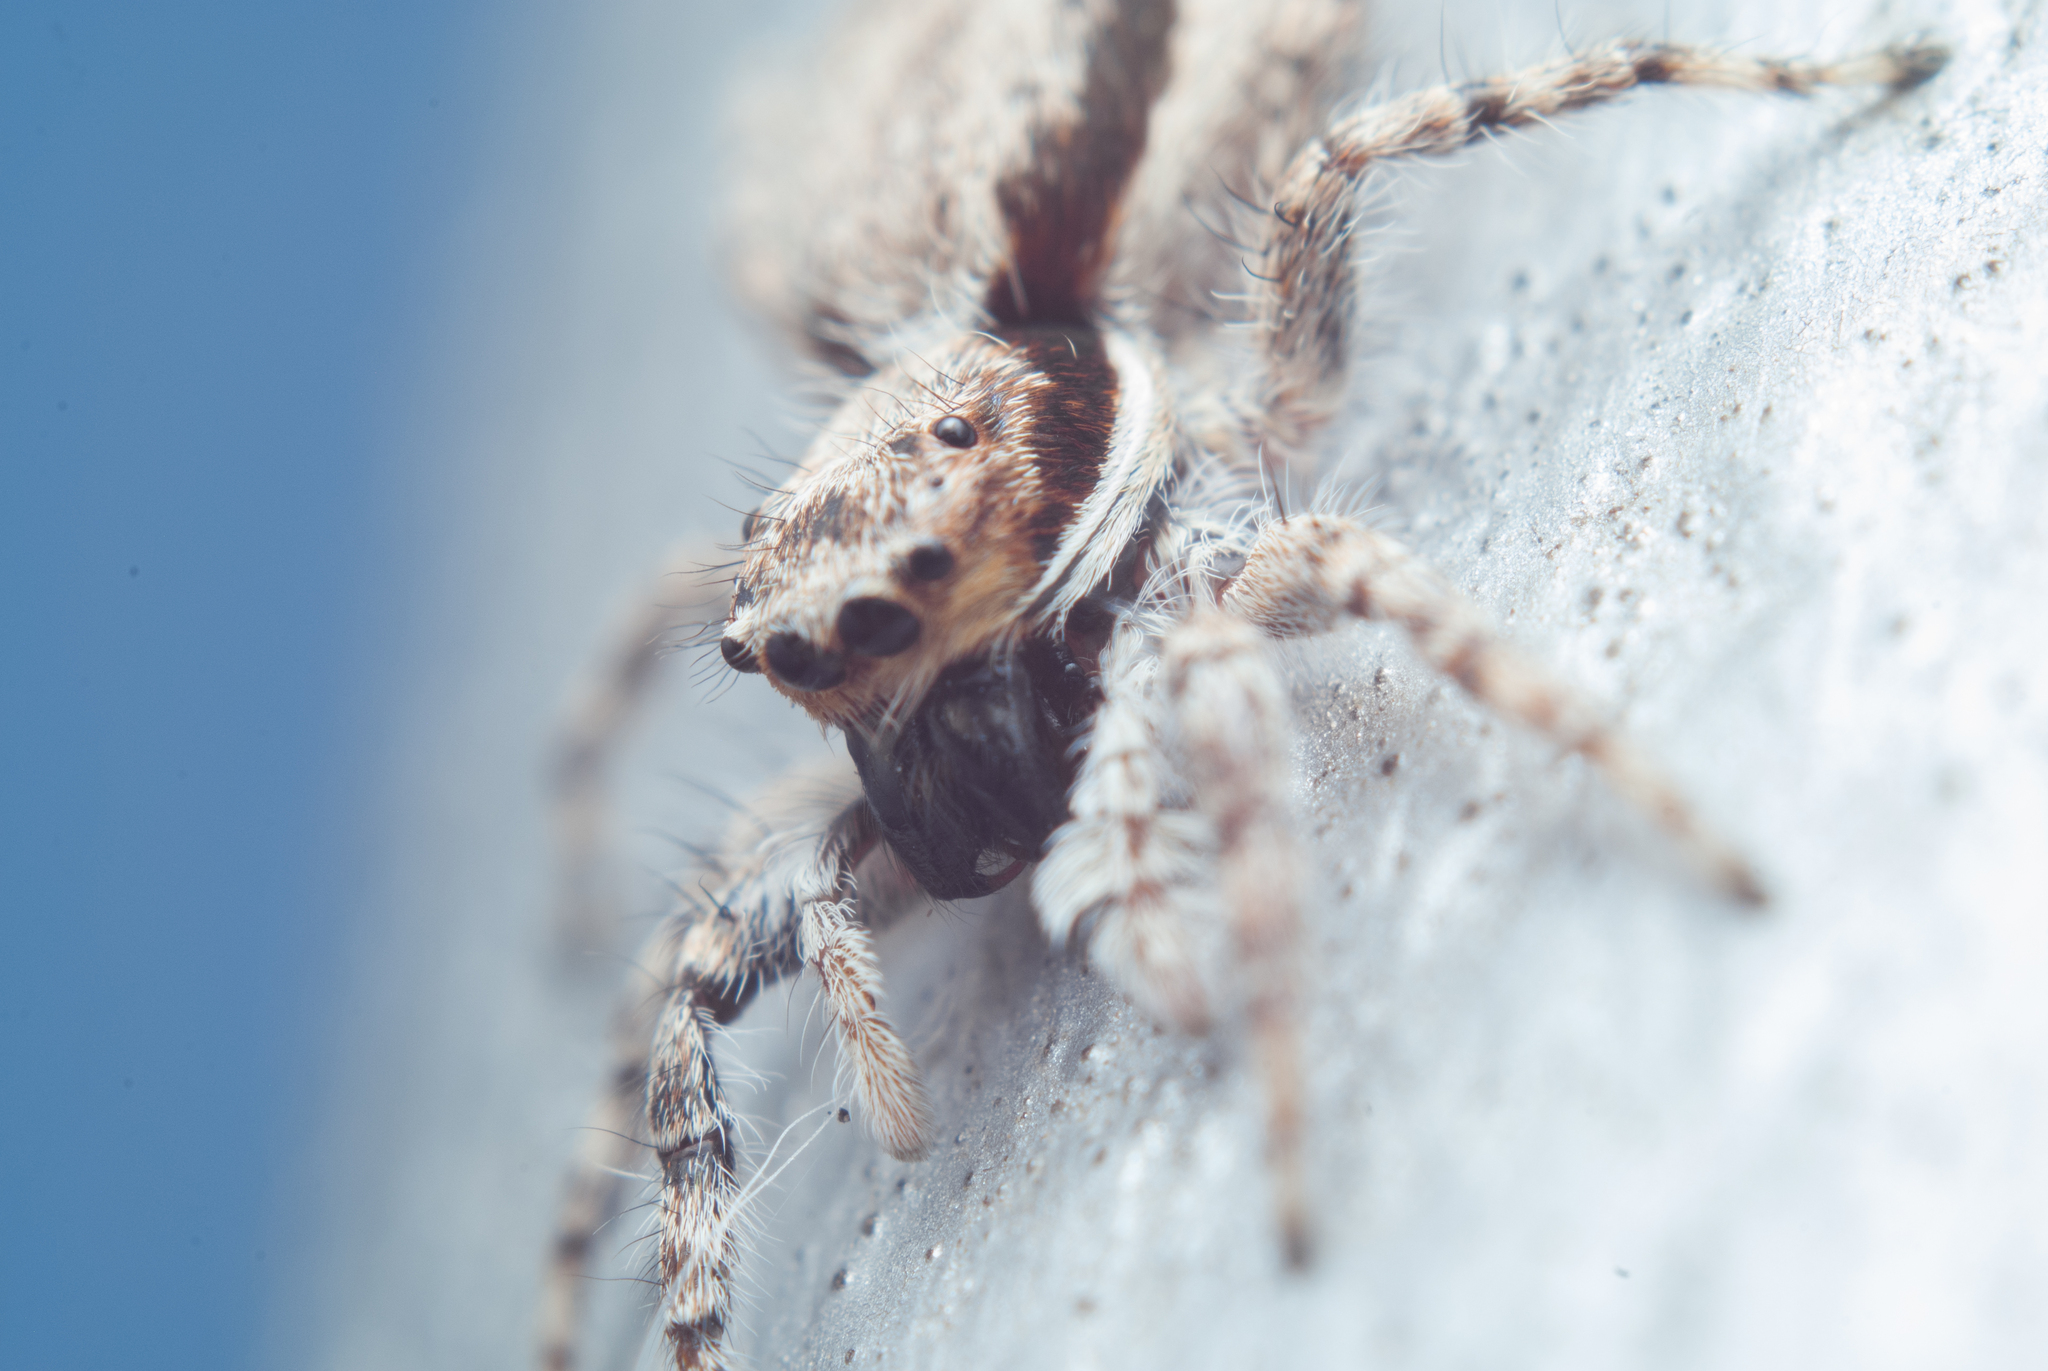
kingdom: Animalia
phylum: Arthropoda
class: Arachnida
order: Araneae
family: Salticidae
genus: Menemerus
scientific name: Menemerus bivittatus
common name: Gray wall jumper
